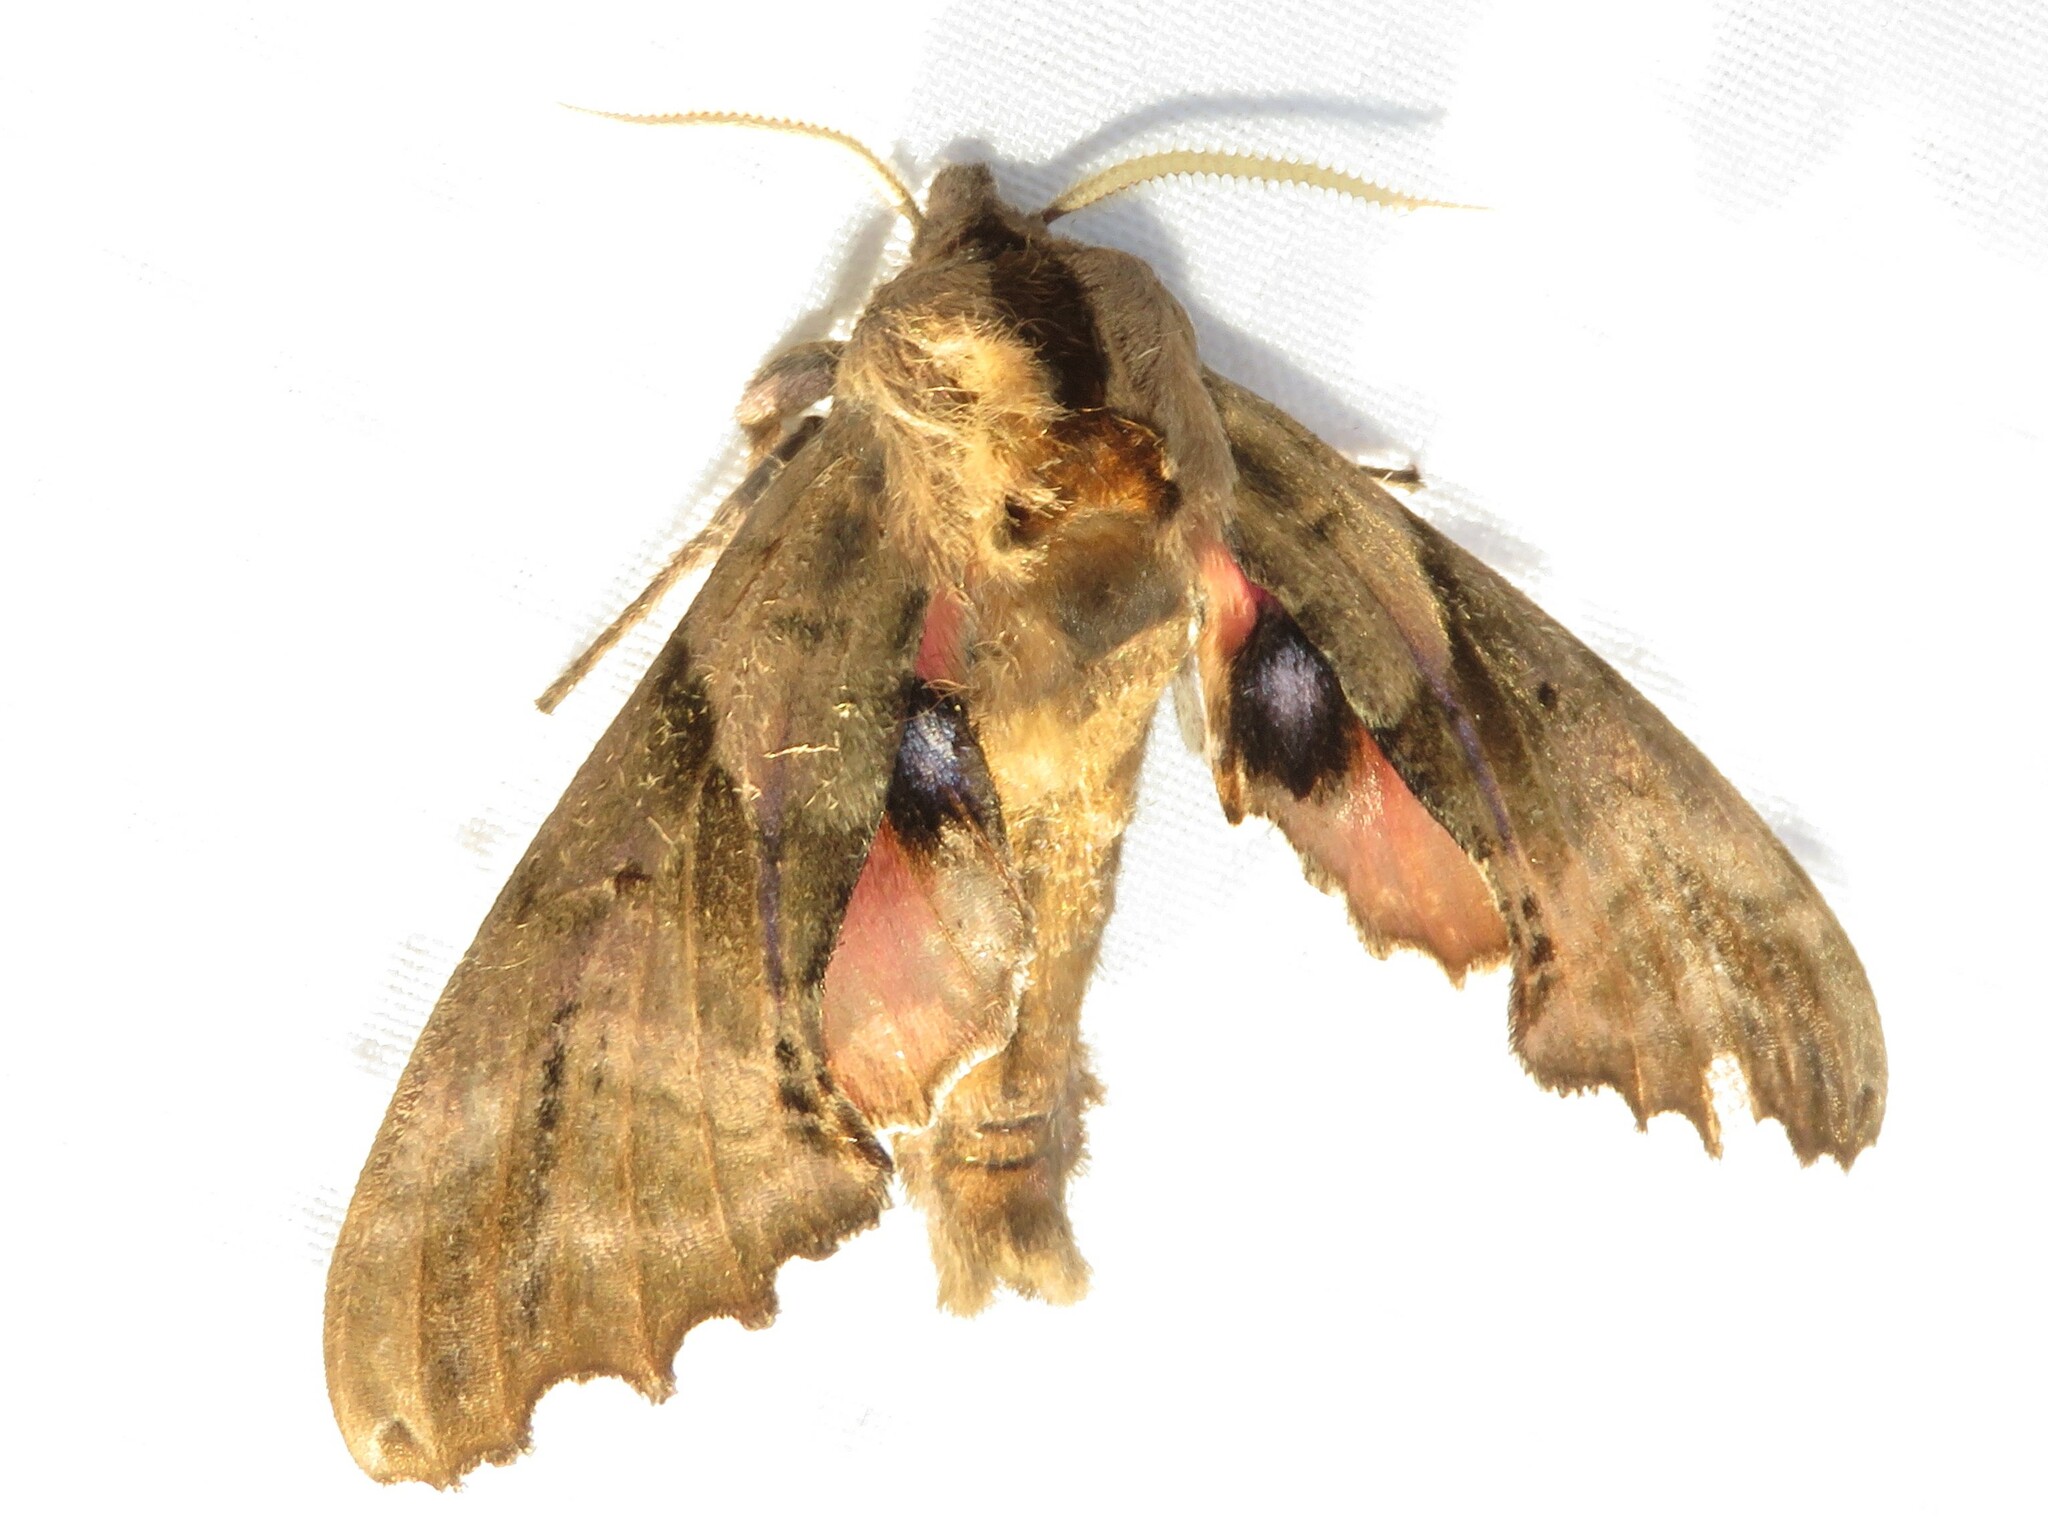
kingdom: Animalia
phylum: Arthropoda
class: Insecta
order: Lepidoptera
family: Sphingidae
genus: Paonias
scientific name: Paonias excaecata
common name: Blind-eyed sphinx
